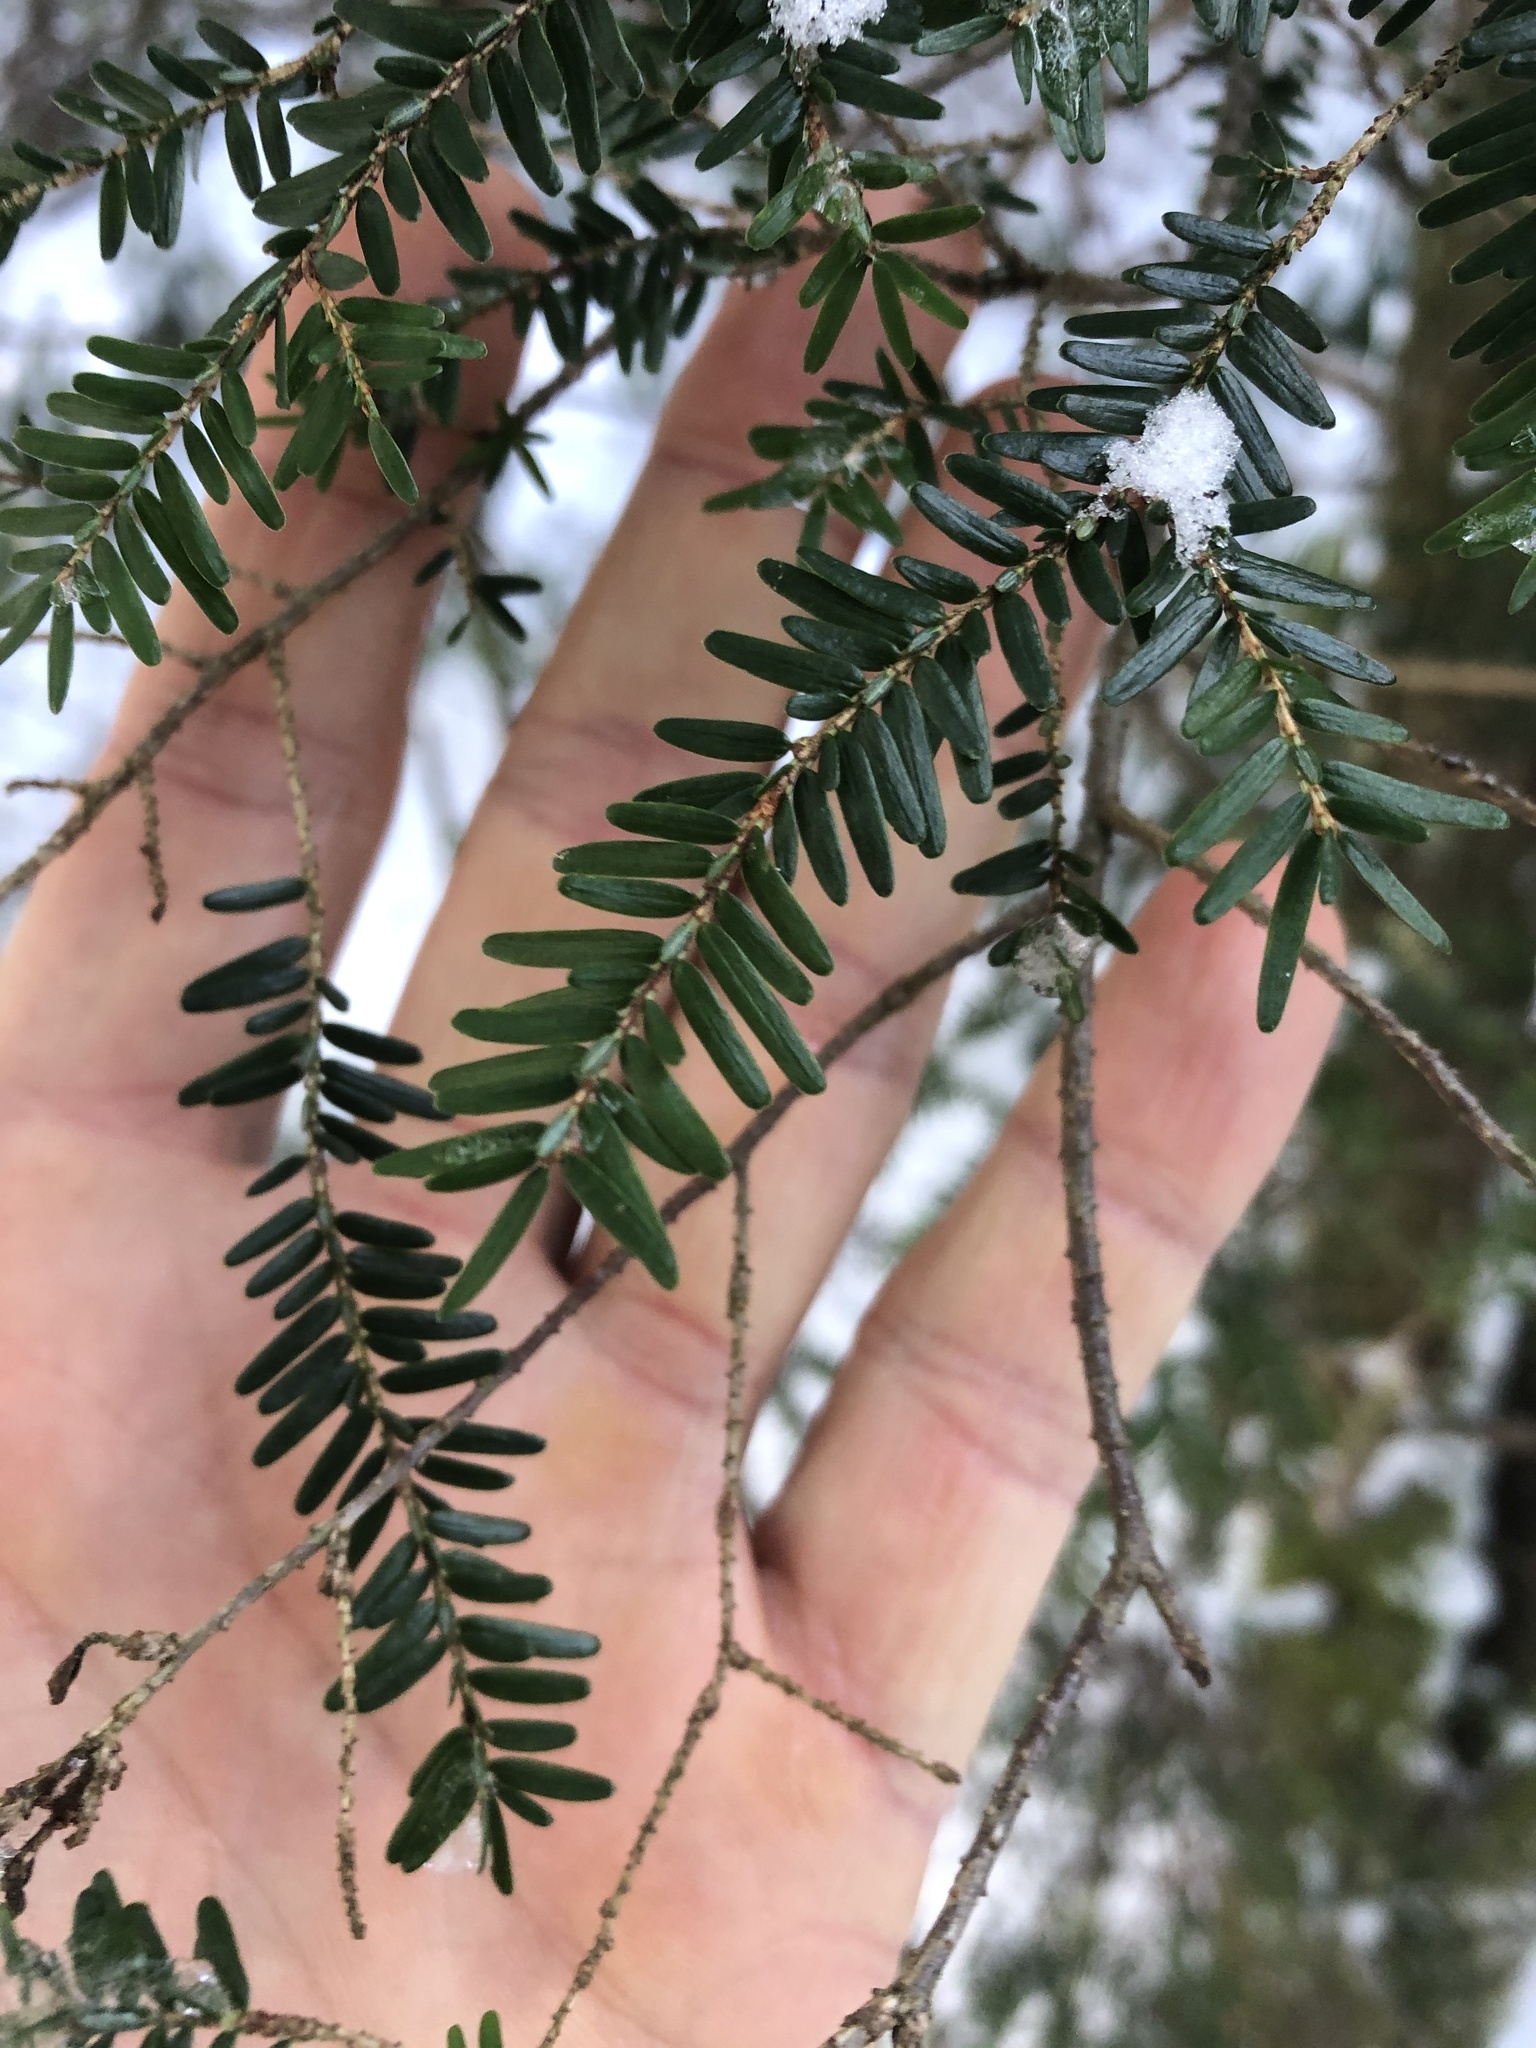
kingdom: Plantae
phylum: Tracheophyta
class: Pinopsida
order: Pinales
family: Pinaceae
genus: Tsuga
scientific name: Tsuga canadensis
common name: Eastern hemlock
